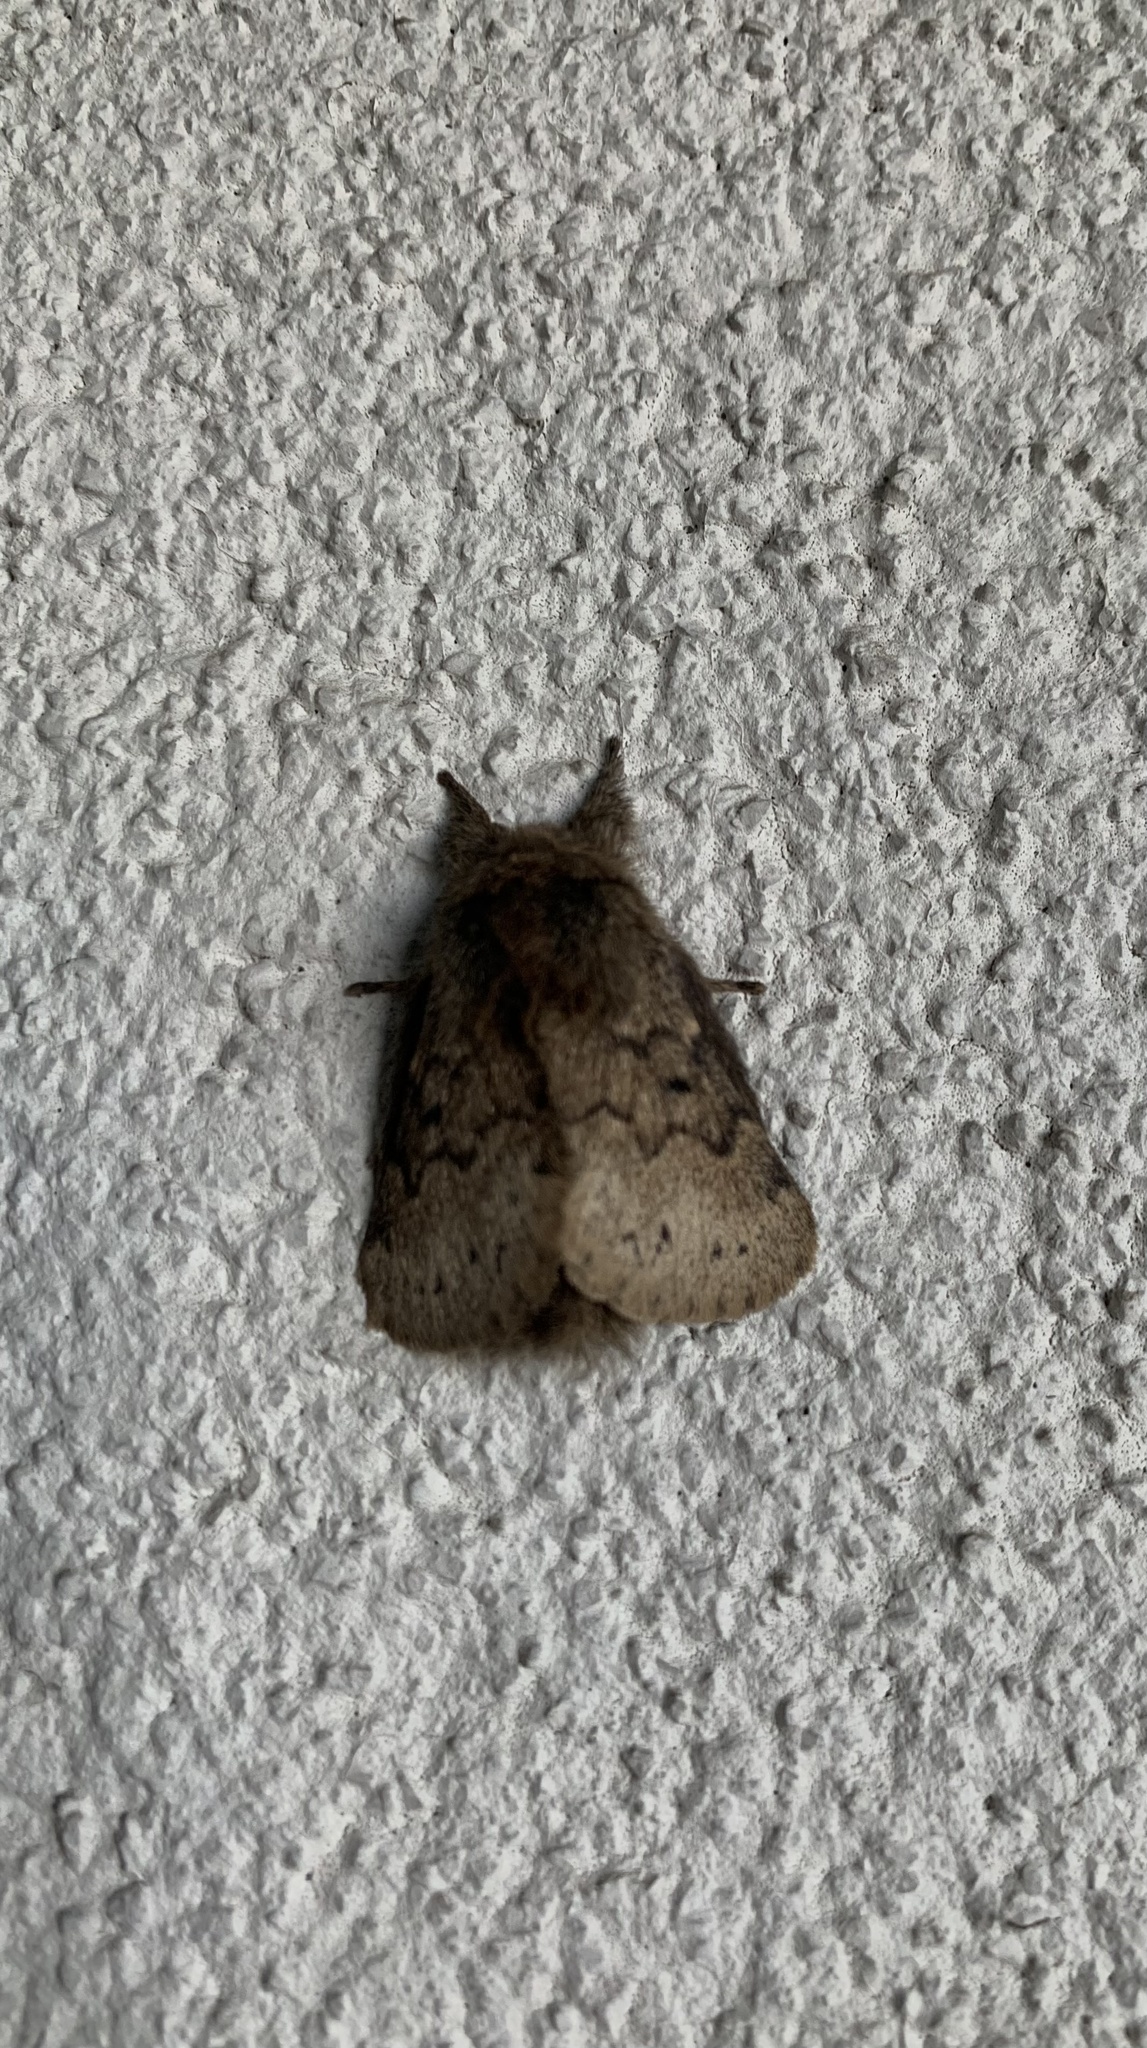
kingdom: Animalia
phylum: Arthropoda
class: Insecta
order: Lepidoptera
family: Lasiocampidae
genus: Macromphalia
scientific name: Macromphalia ancilla
